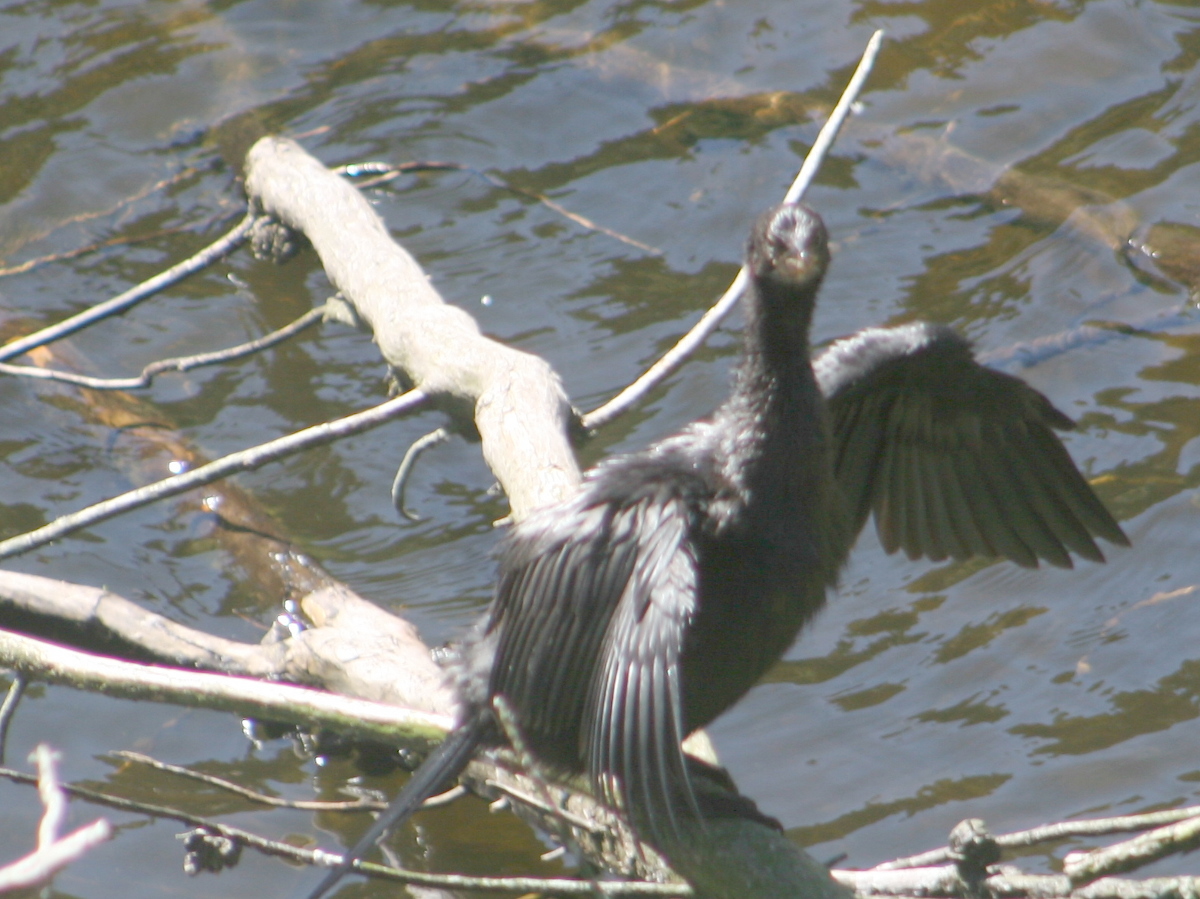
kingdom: Animalia
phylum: Chordata
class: Aves
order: Suliformes
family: Phalacrocoracidae
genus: Microcarbo
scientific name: Microcarbo melanoleucos
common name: Little pied cormorant
